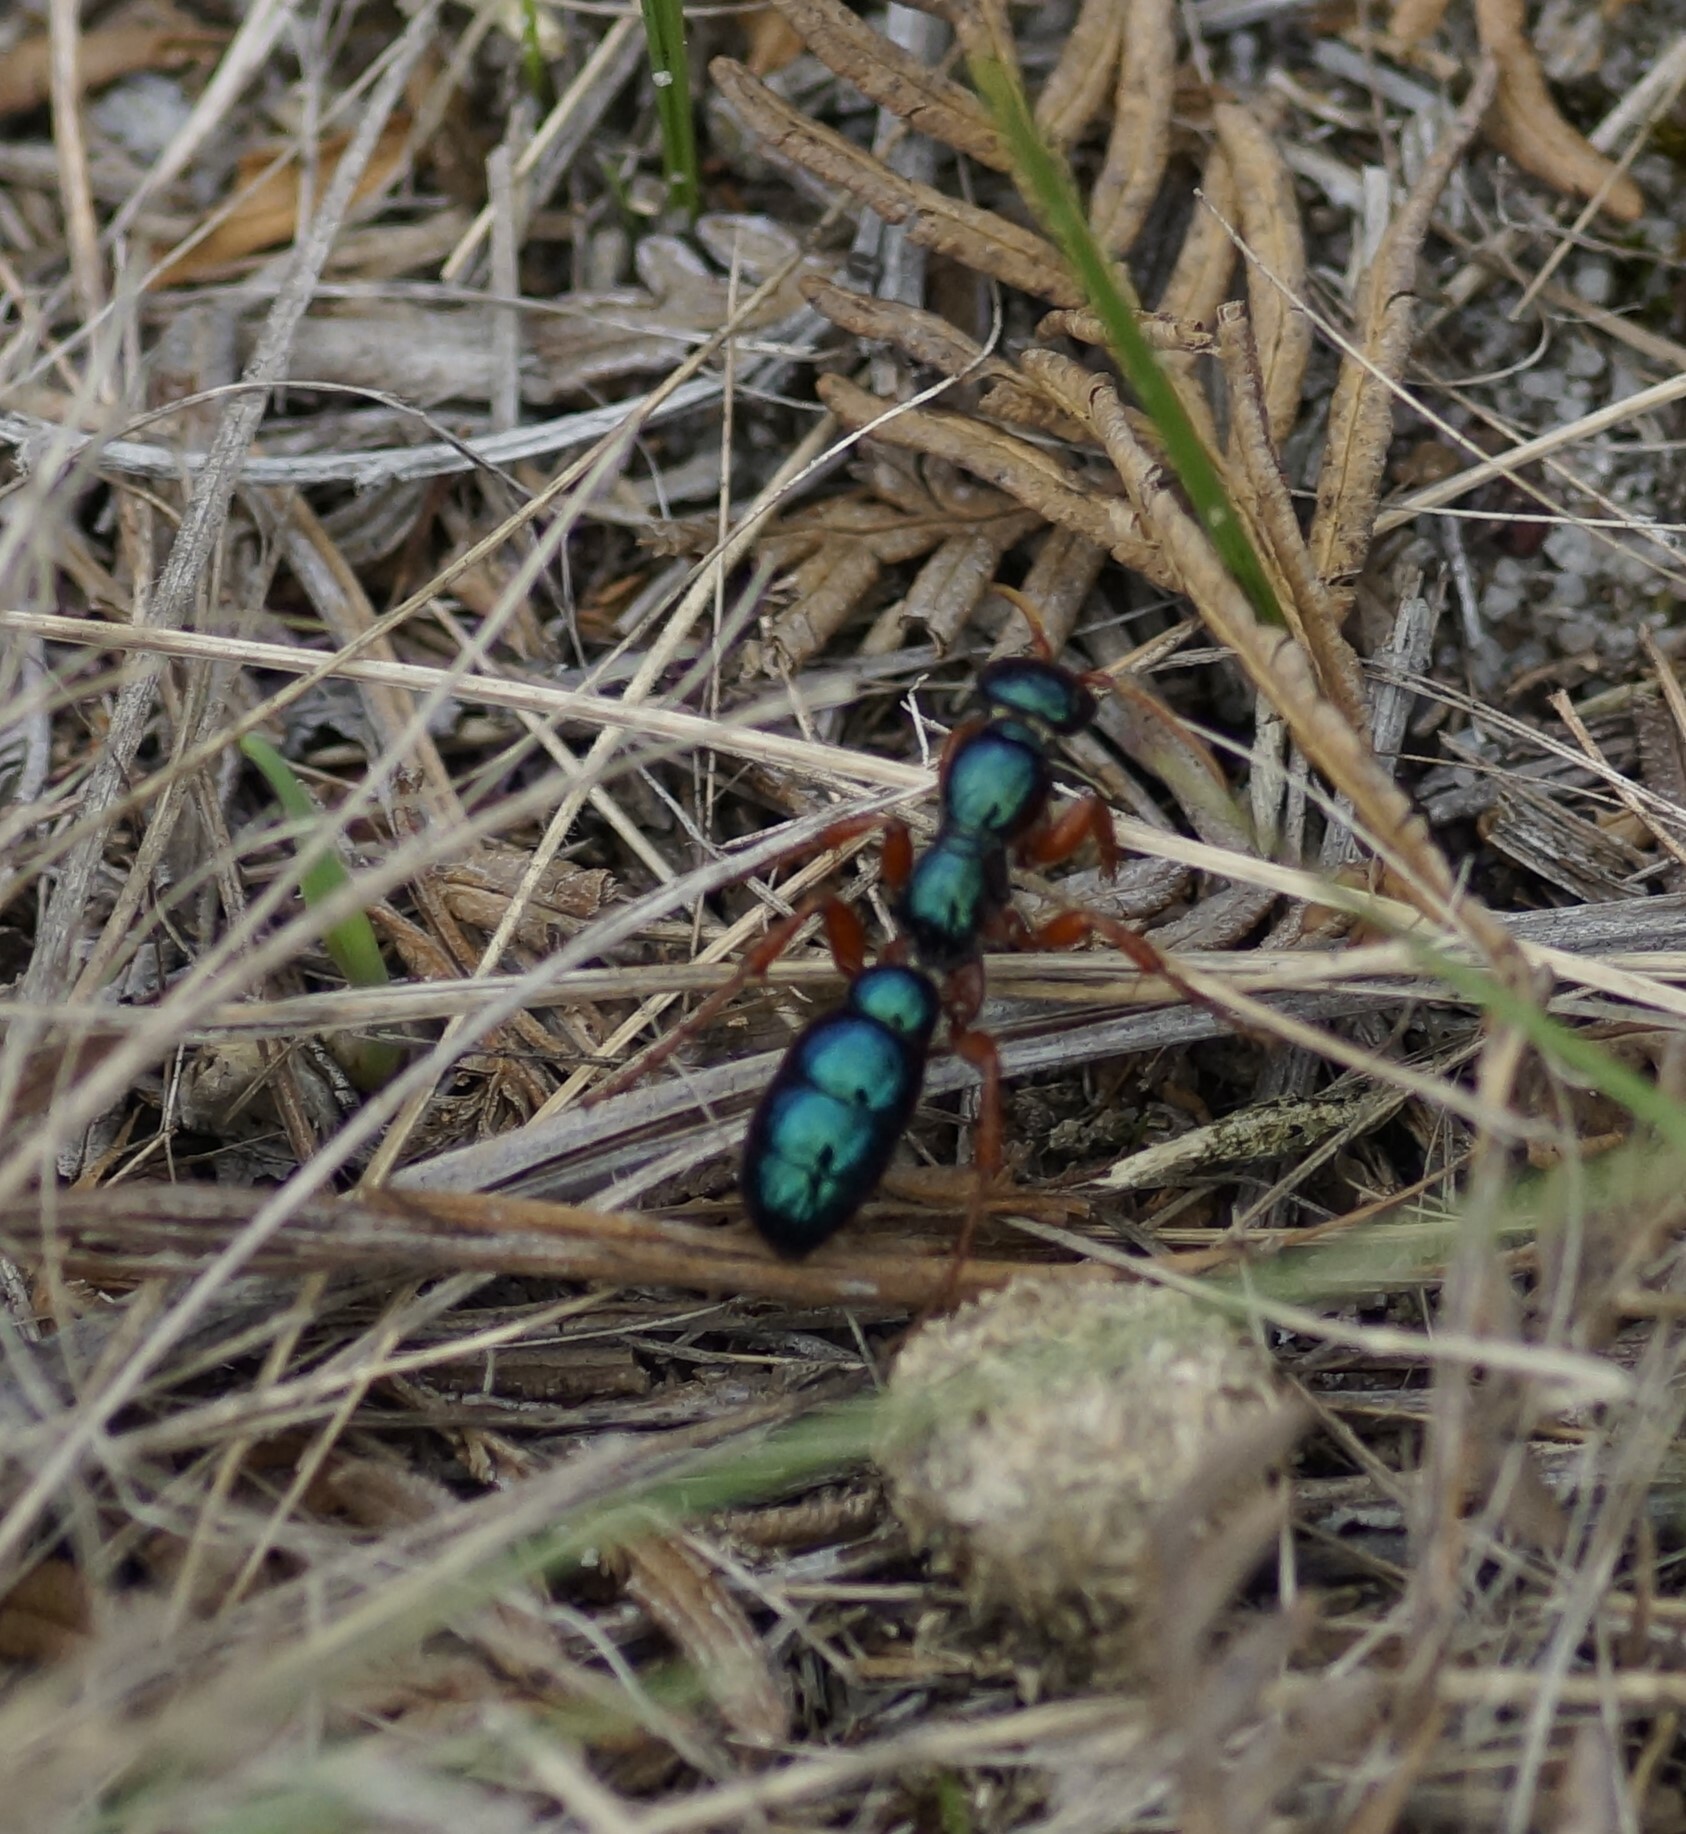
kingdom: Animalia
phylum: Arthropoda
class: Insecta
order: Hymenoptera
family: Tiphiidae
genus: Diamma
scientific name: Diamma
